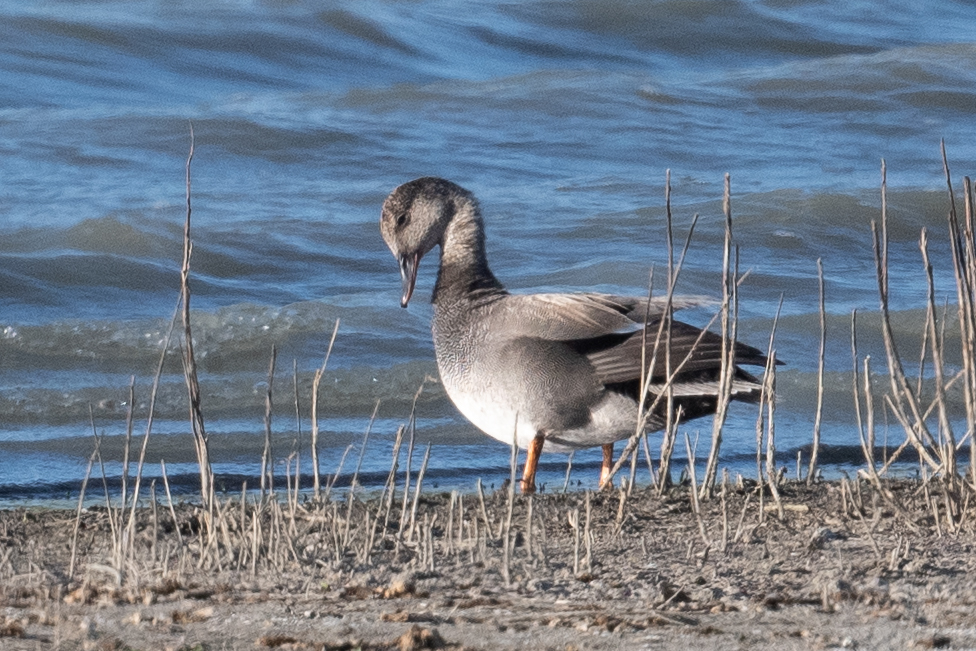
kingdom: Animalia
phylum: Chordata
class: Aves
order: Anseriformes
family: Anatidae
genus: Mareca
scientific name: Mareca strepera
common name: Gadwall
